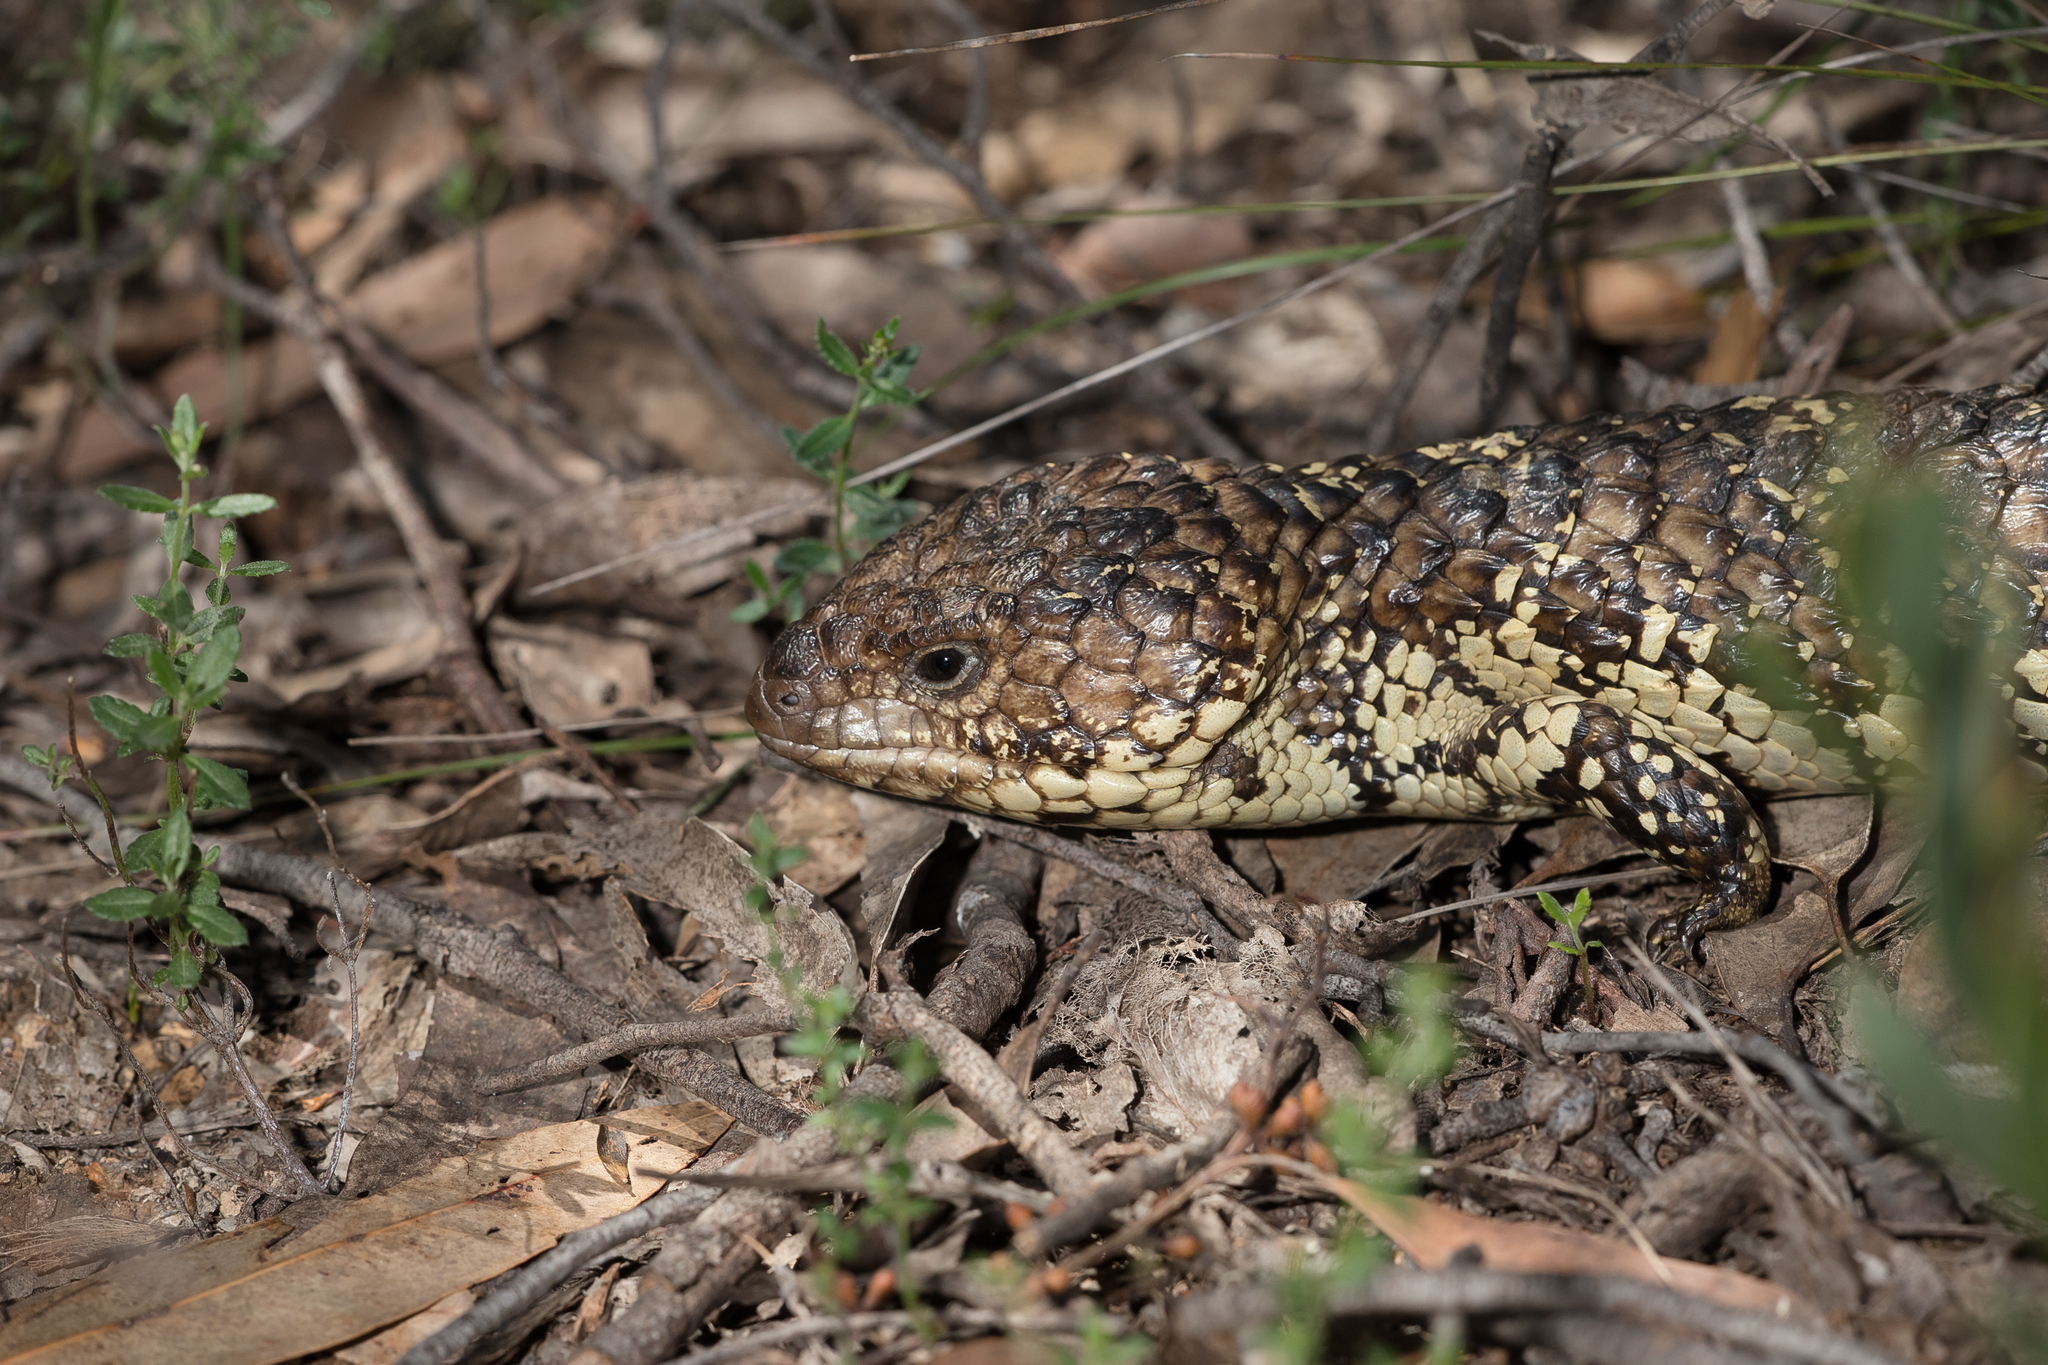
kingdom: Animalia
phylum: Chordata
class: Squamata
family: Scincidae
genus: Tiliqua
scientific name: Tiliqua rugosa
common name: Pinecone lizard
